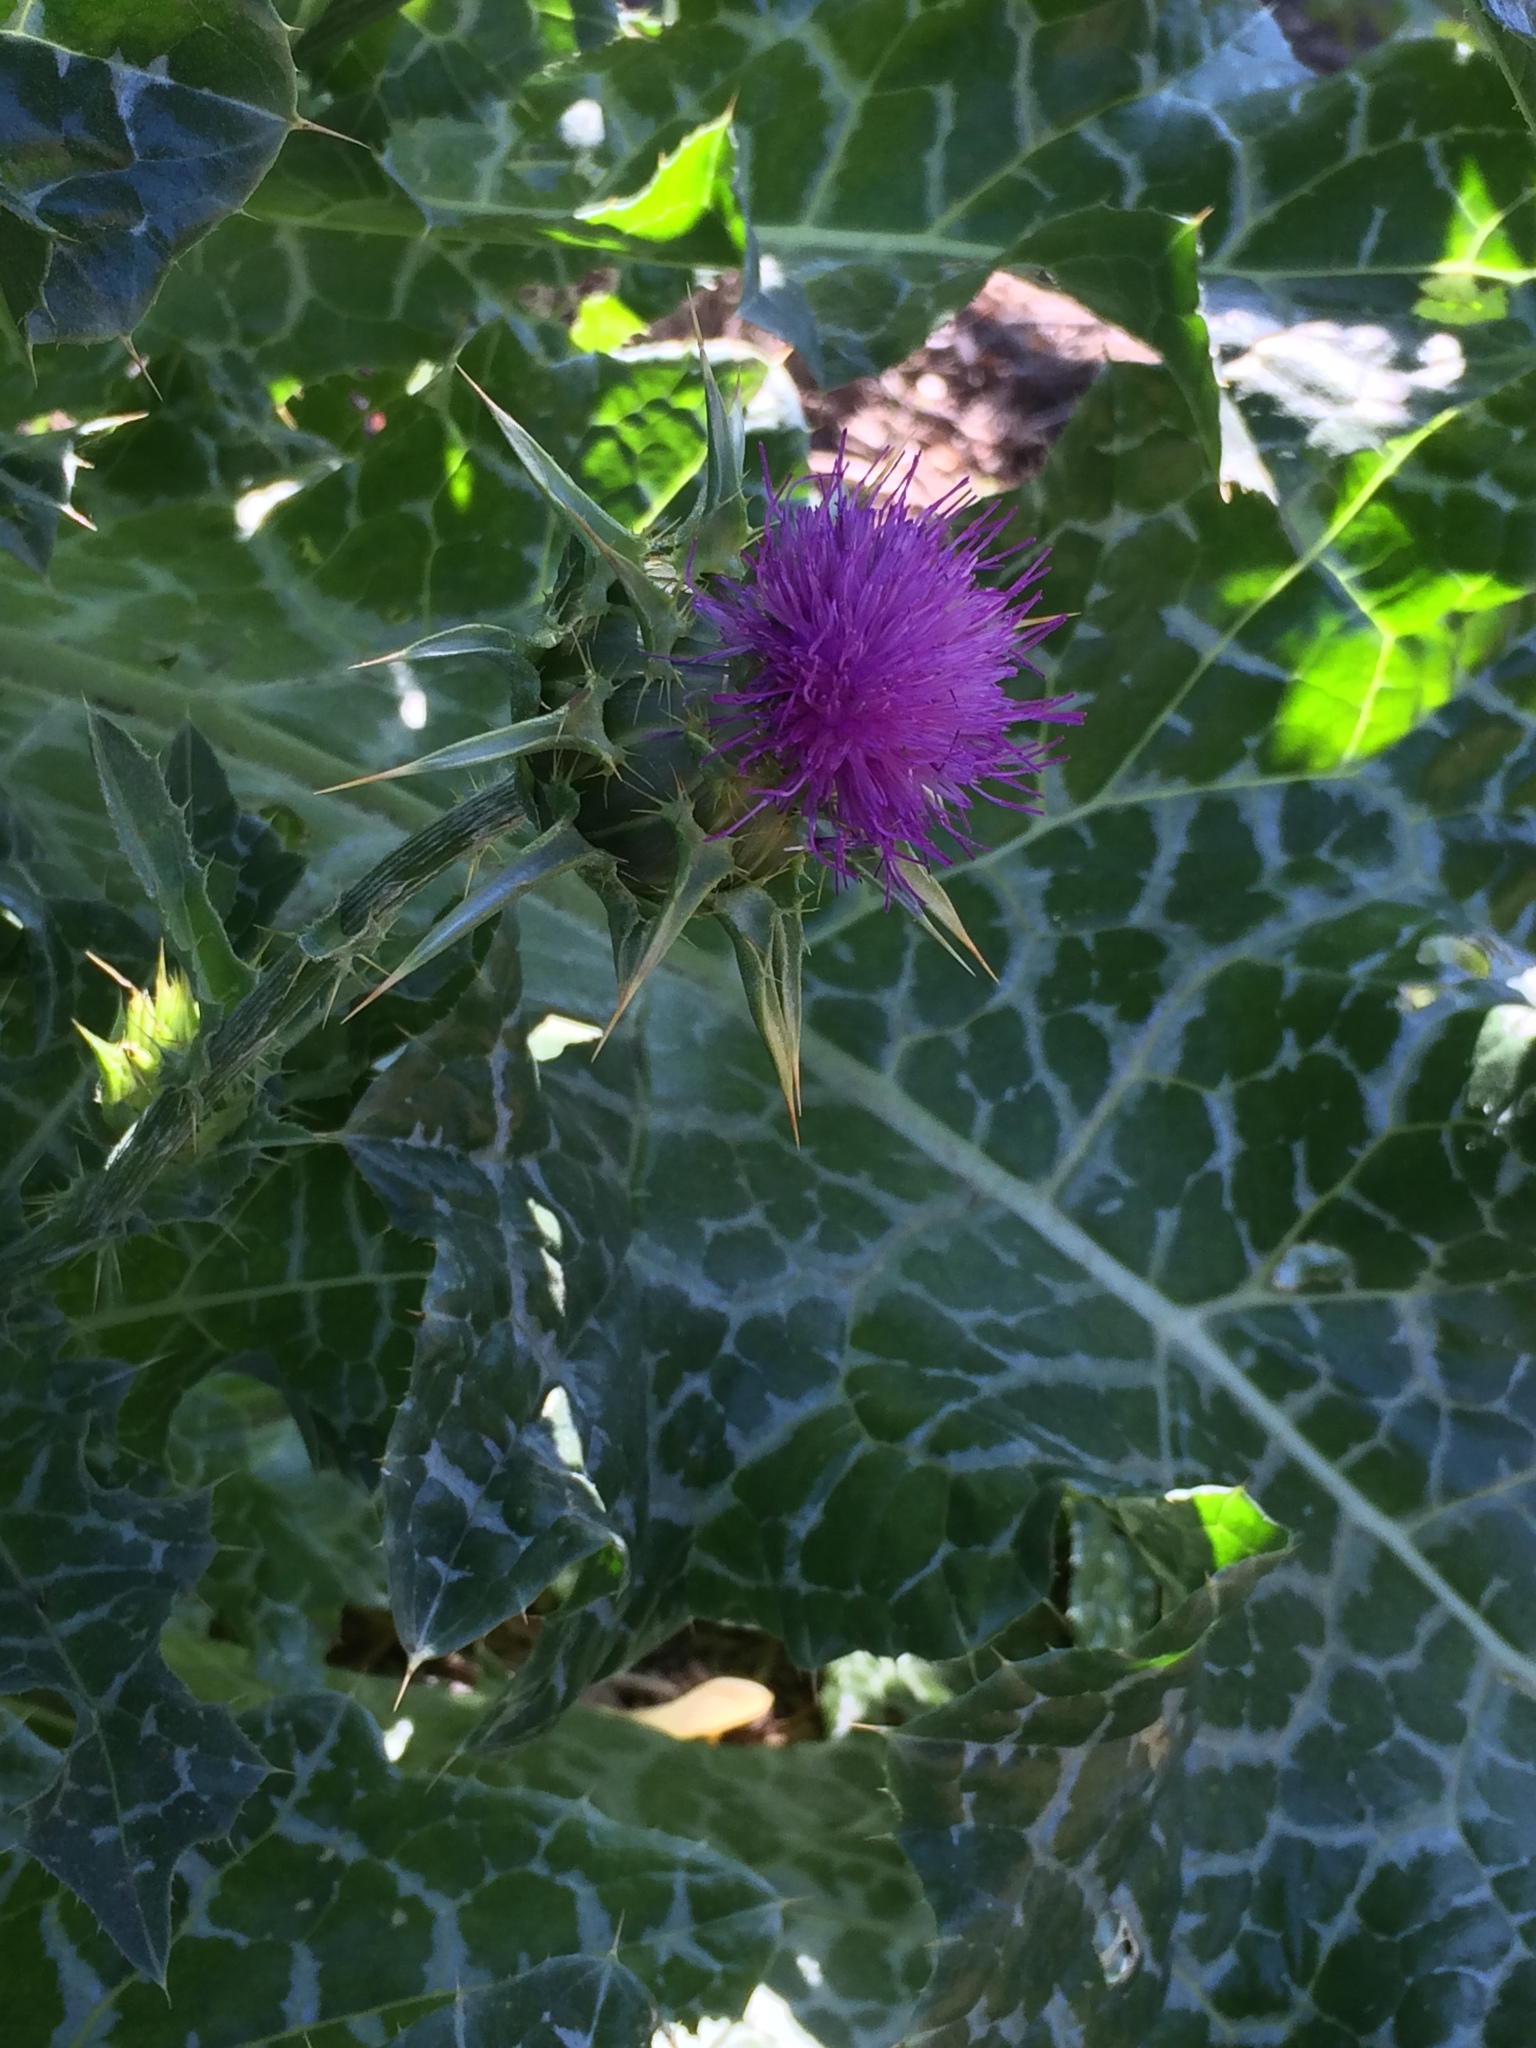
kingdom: Plantae
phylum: Tracheophyta
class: Magnoliopsida
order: Asterales
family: Asteraceae
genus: Silybum
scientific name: Silybum marianum
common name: Milk thistle
